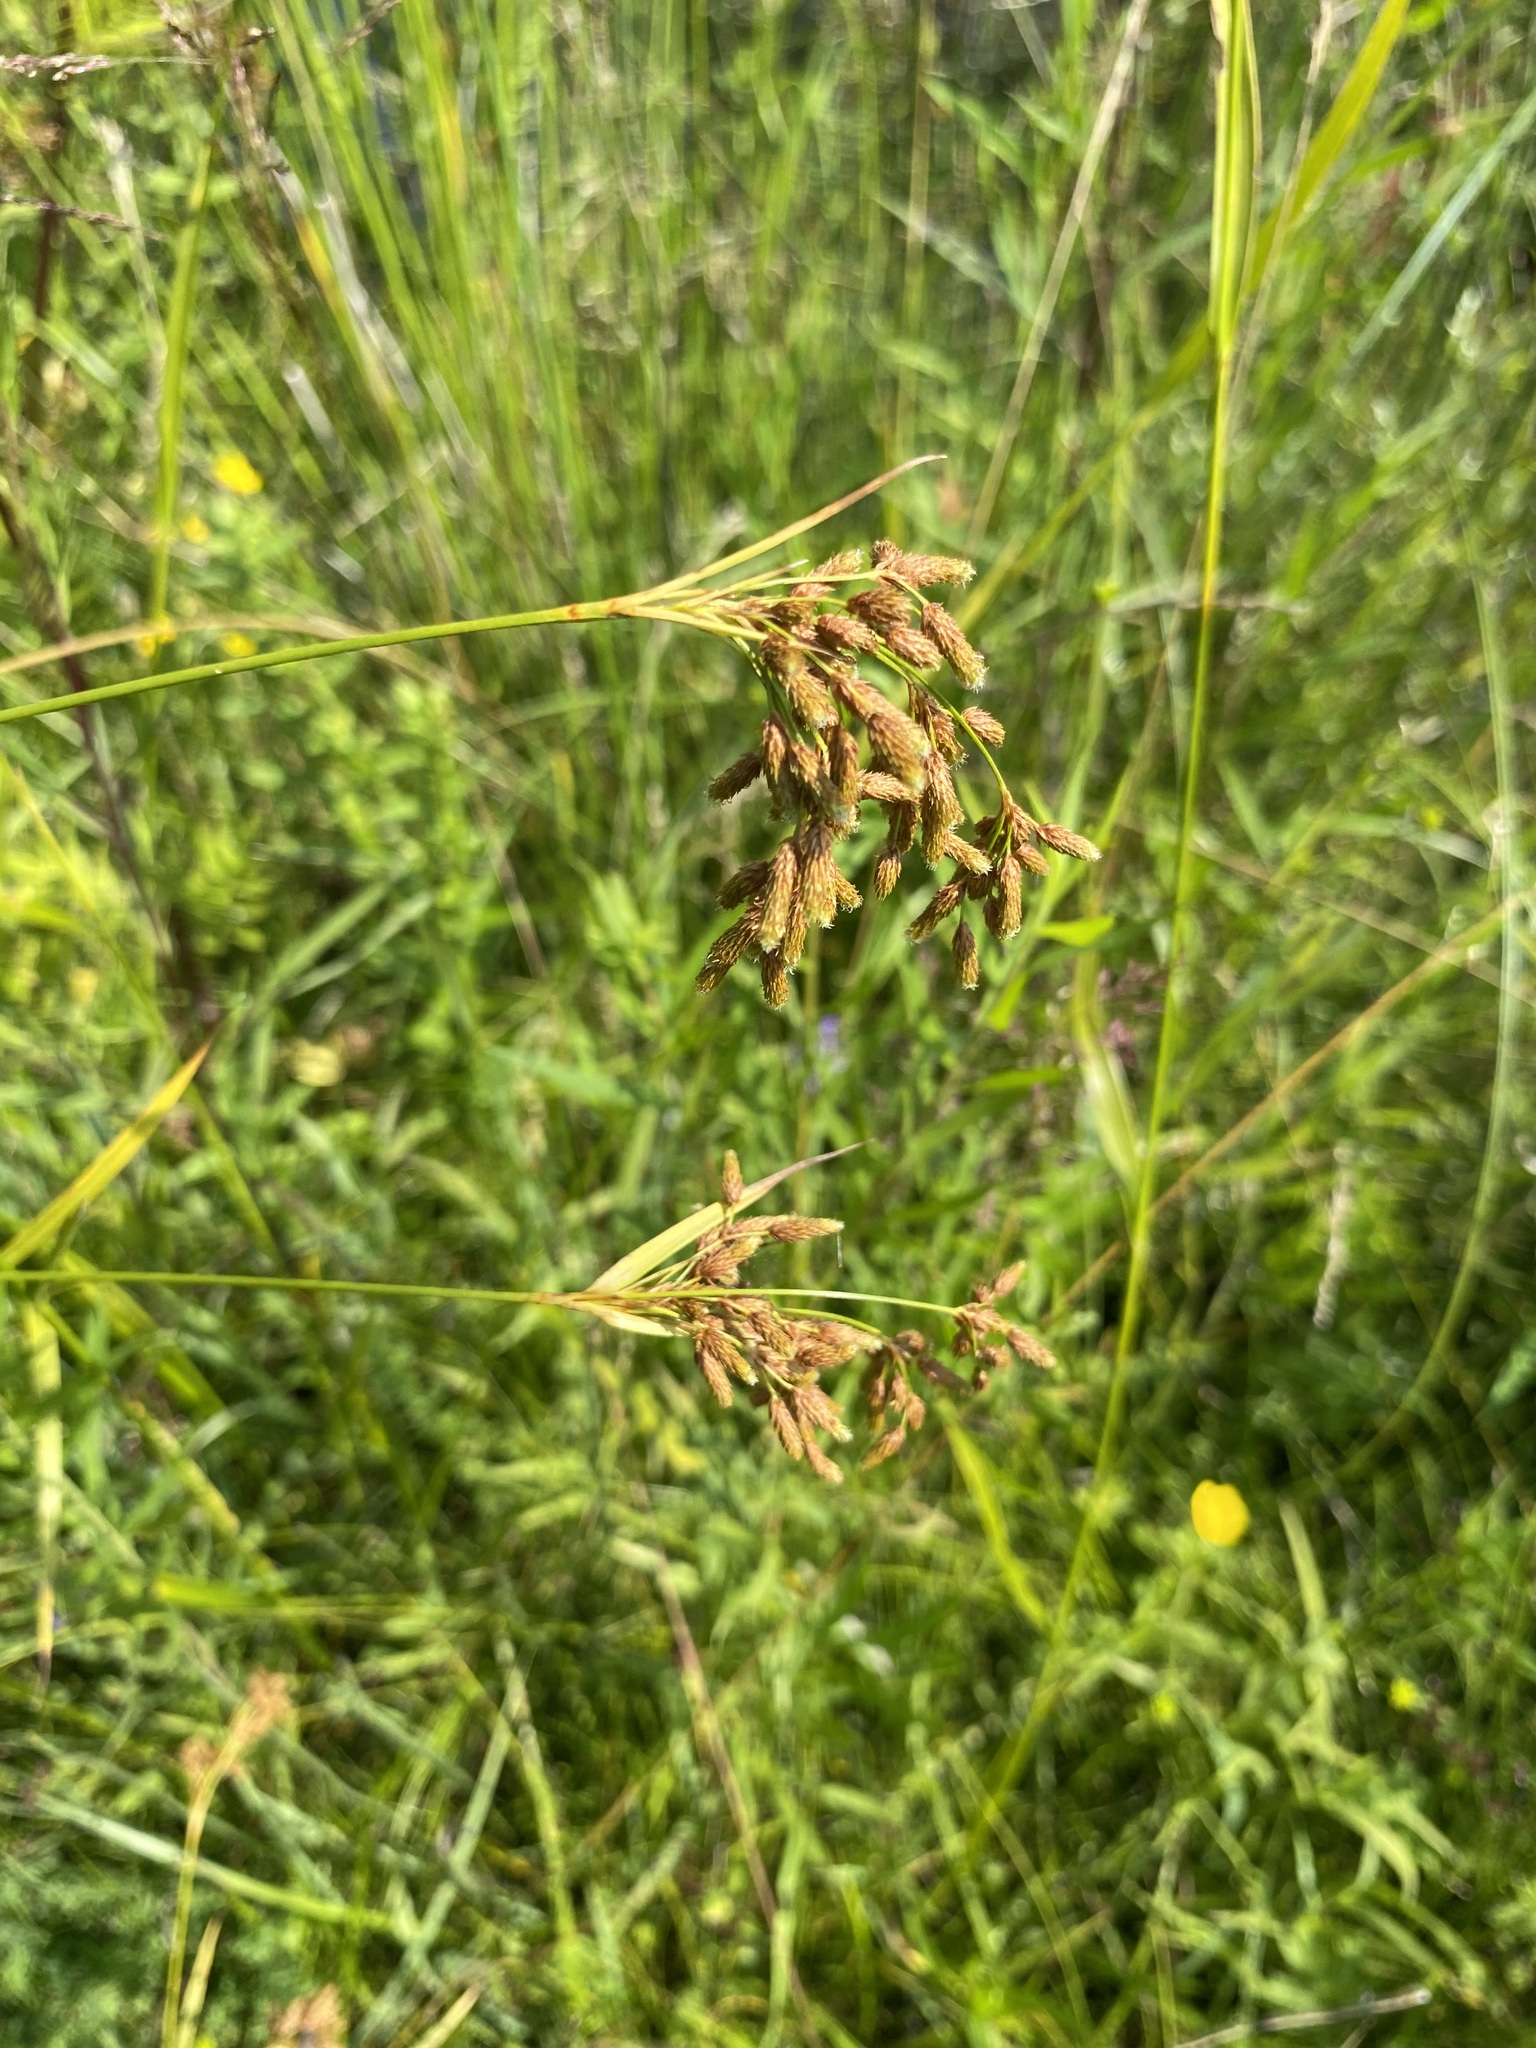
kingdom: Plantae
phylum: Tracheophyta
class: Liliopsida
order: Poales
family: Cyperaceae
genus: Scirpus
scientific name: Scirpus pendulus
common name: Nodding bulrush
